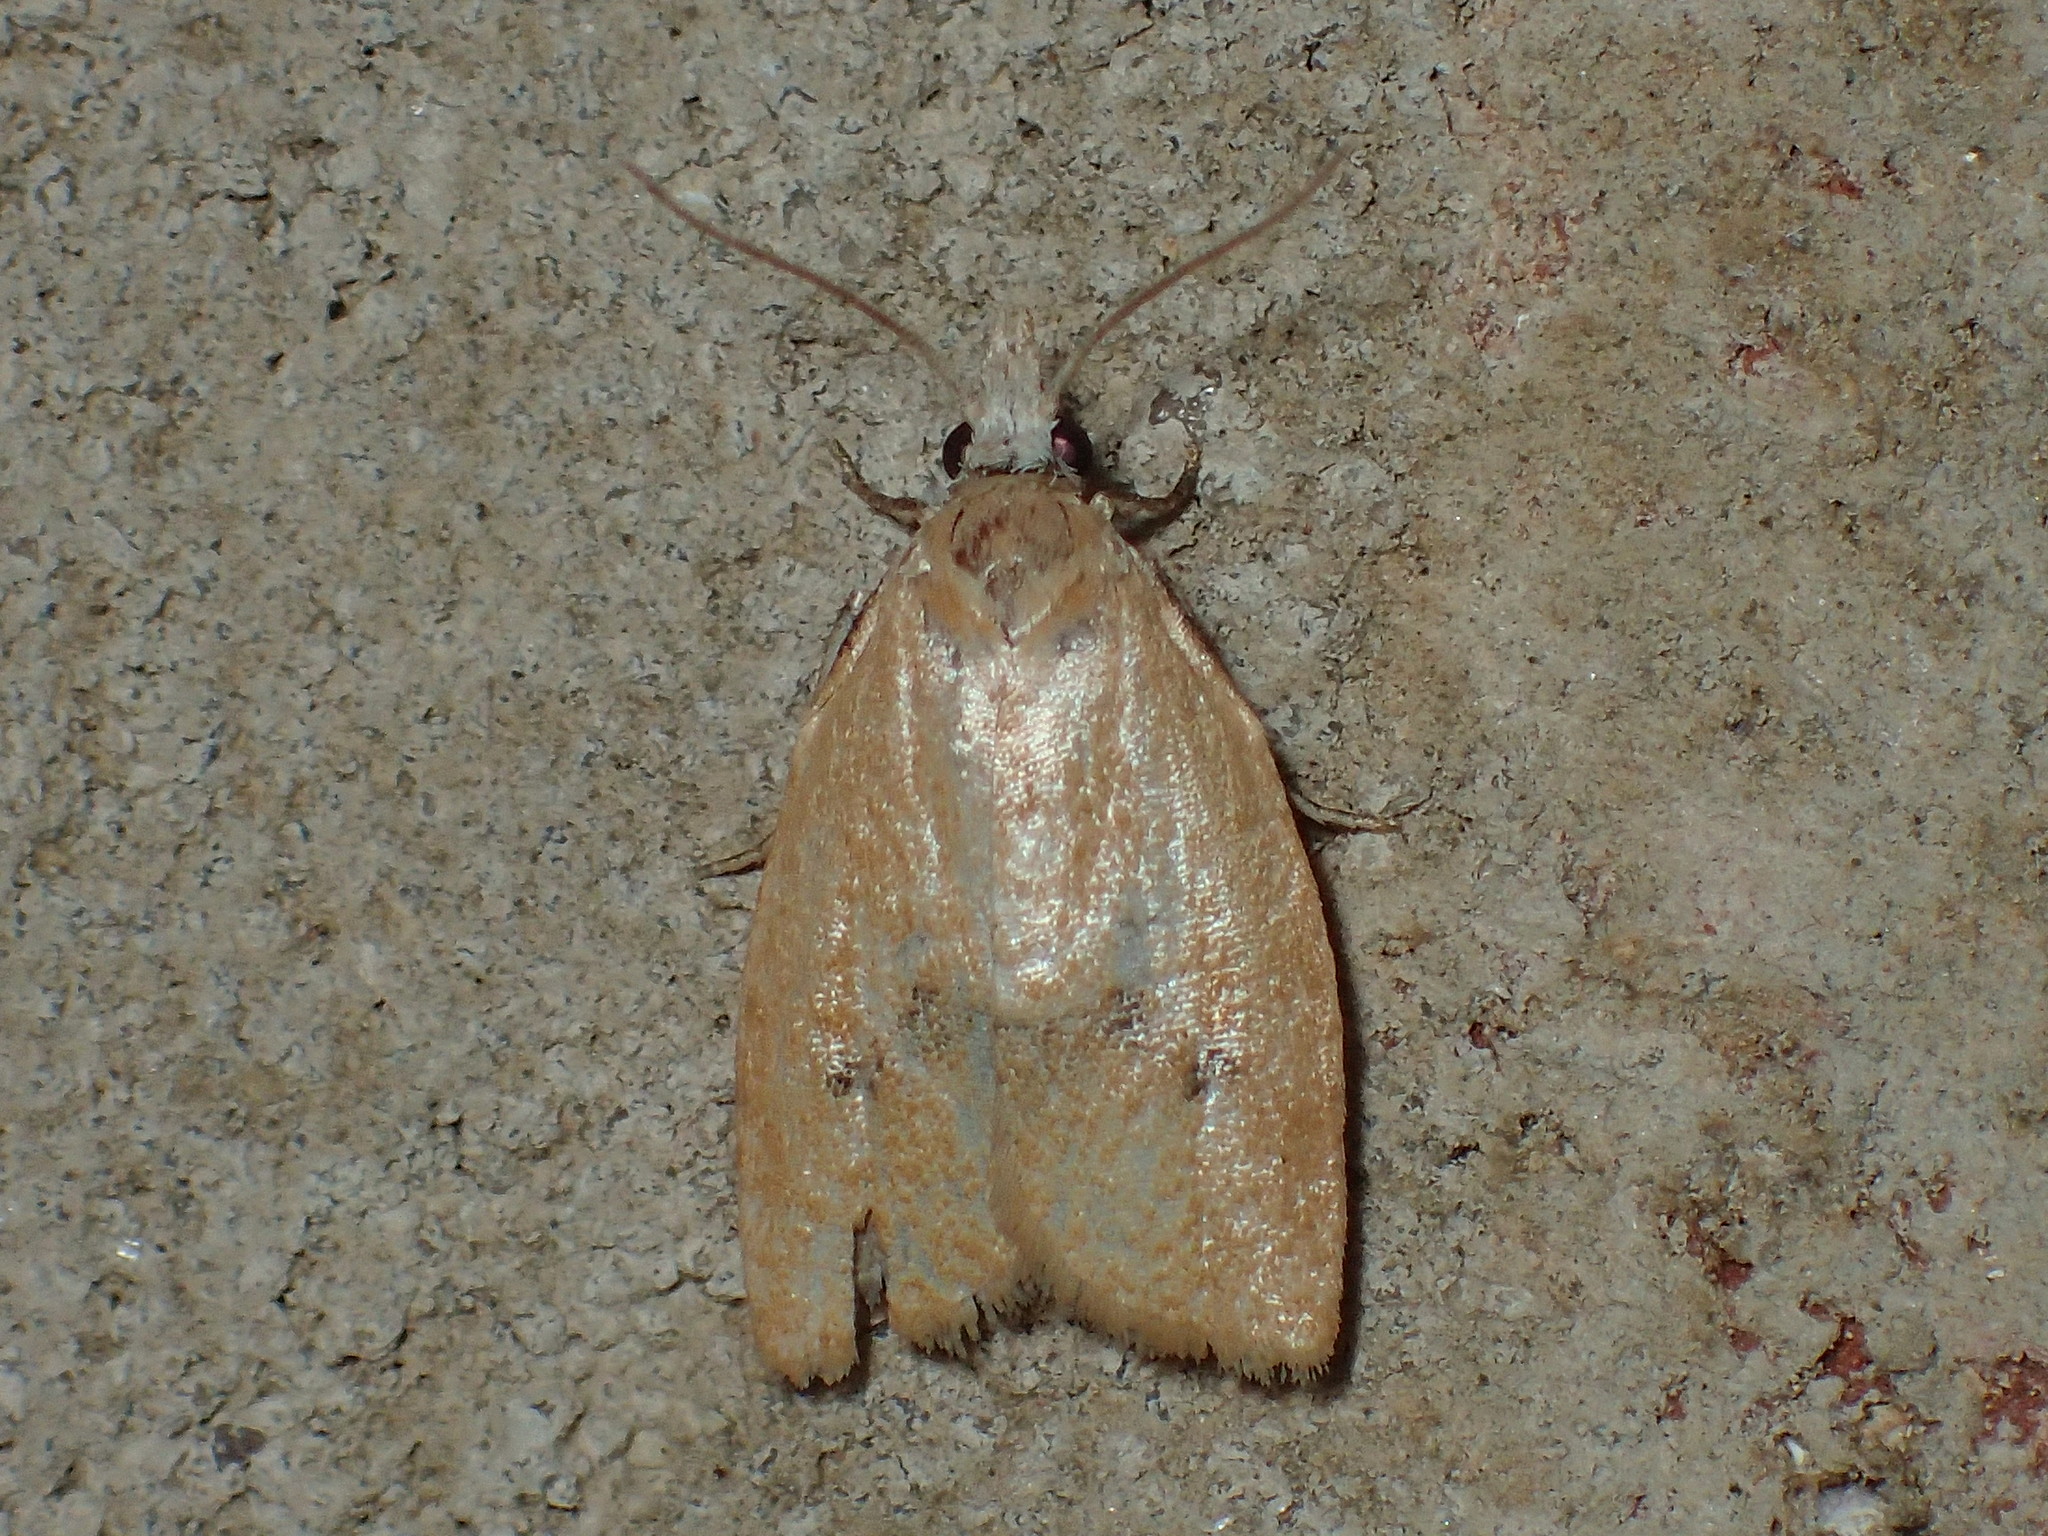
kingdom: Animalia
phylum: Arthropoda
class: Insecta
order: Lepidoptera
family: Tortricidae
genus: Sparganothoides
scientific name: Sparganothoides lentiginosana
